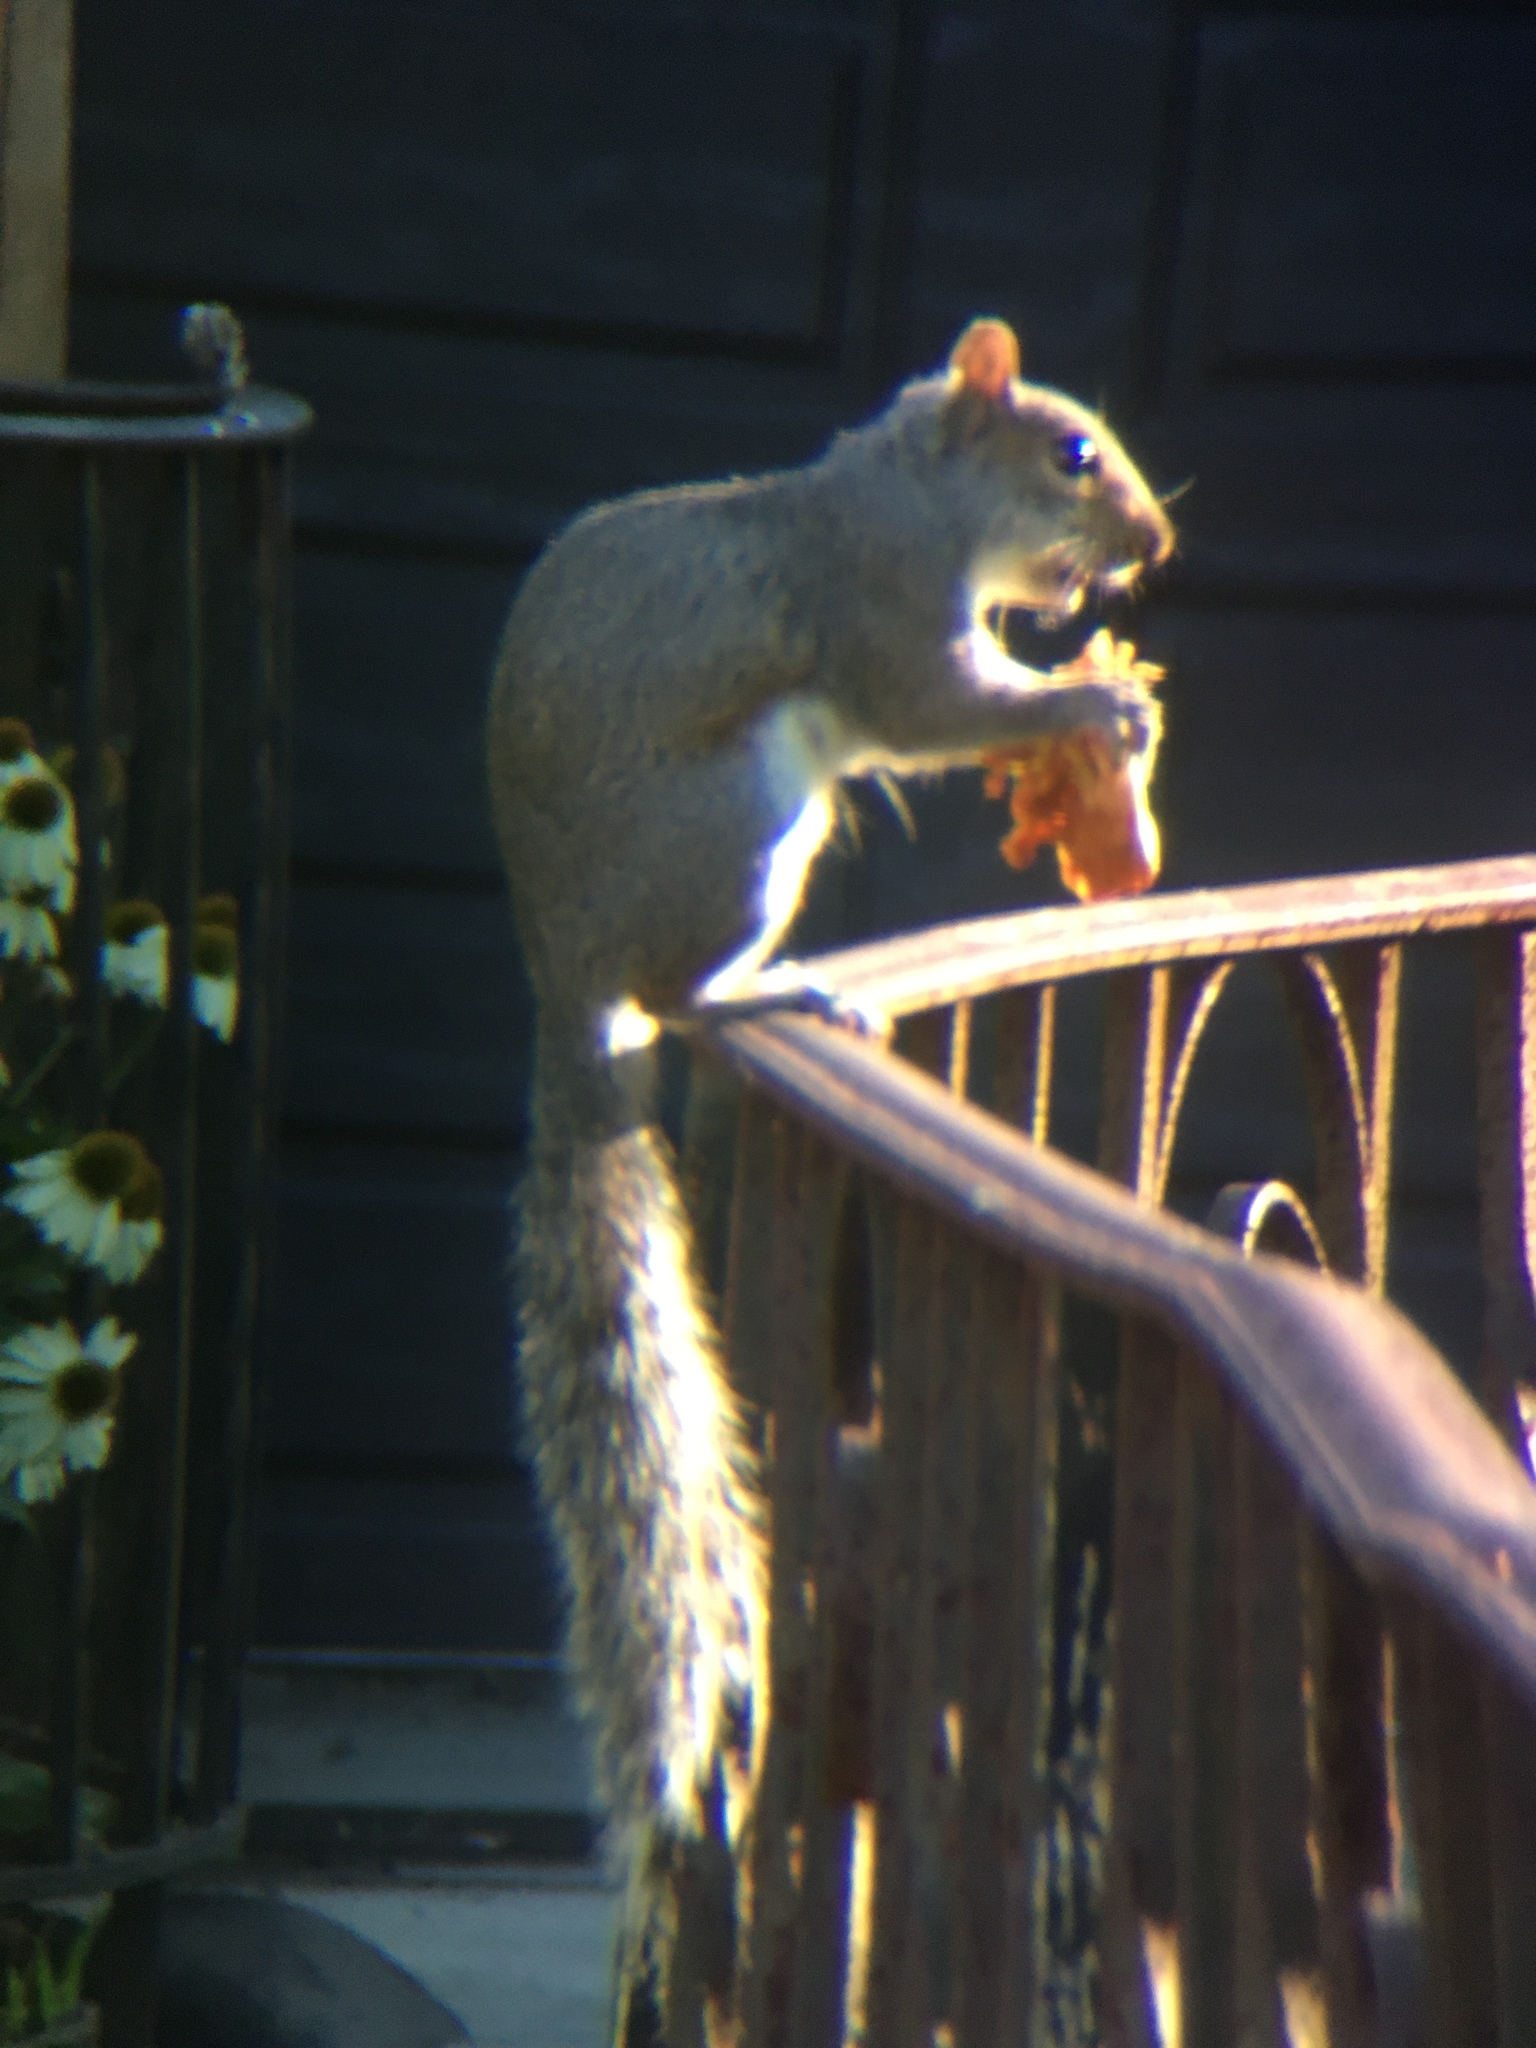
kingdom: Animalia
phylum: Chordata
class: Mammalia
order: Rodentia
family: Sciuridae
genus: Sciurus
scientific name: Sciurus carolinensis
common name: Eastern gray squirrel
